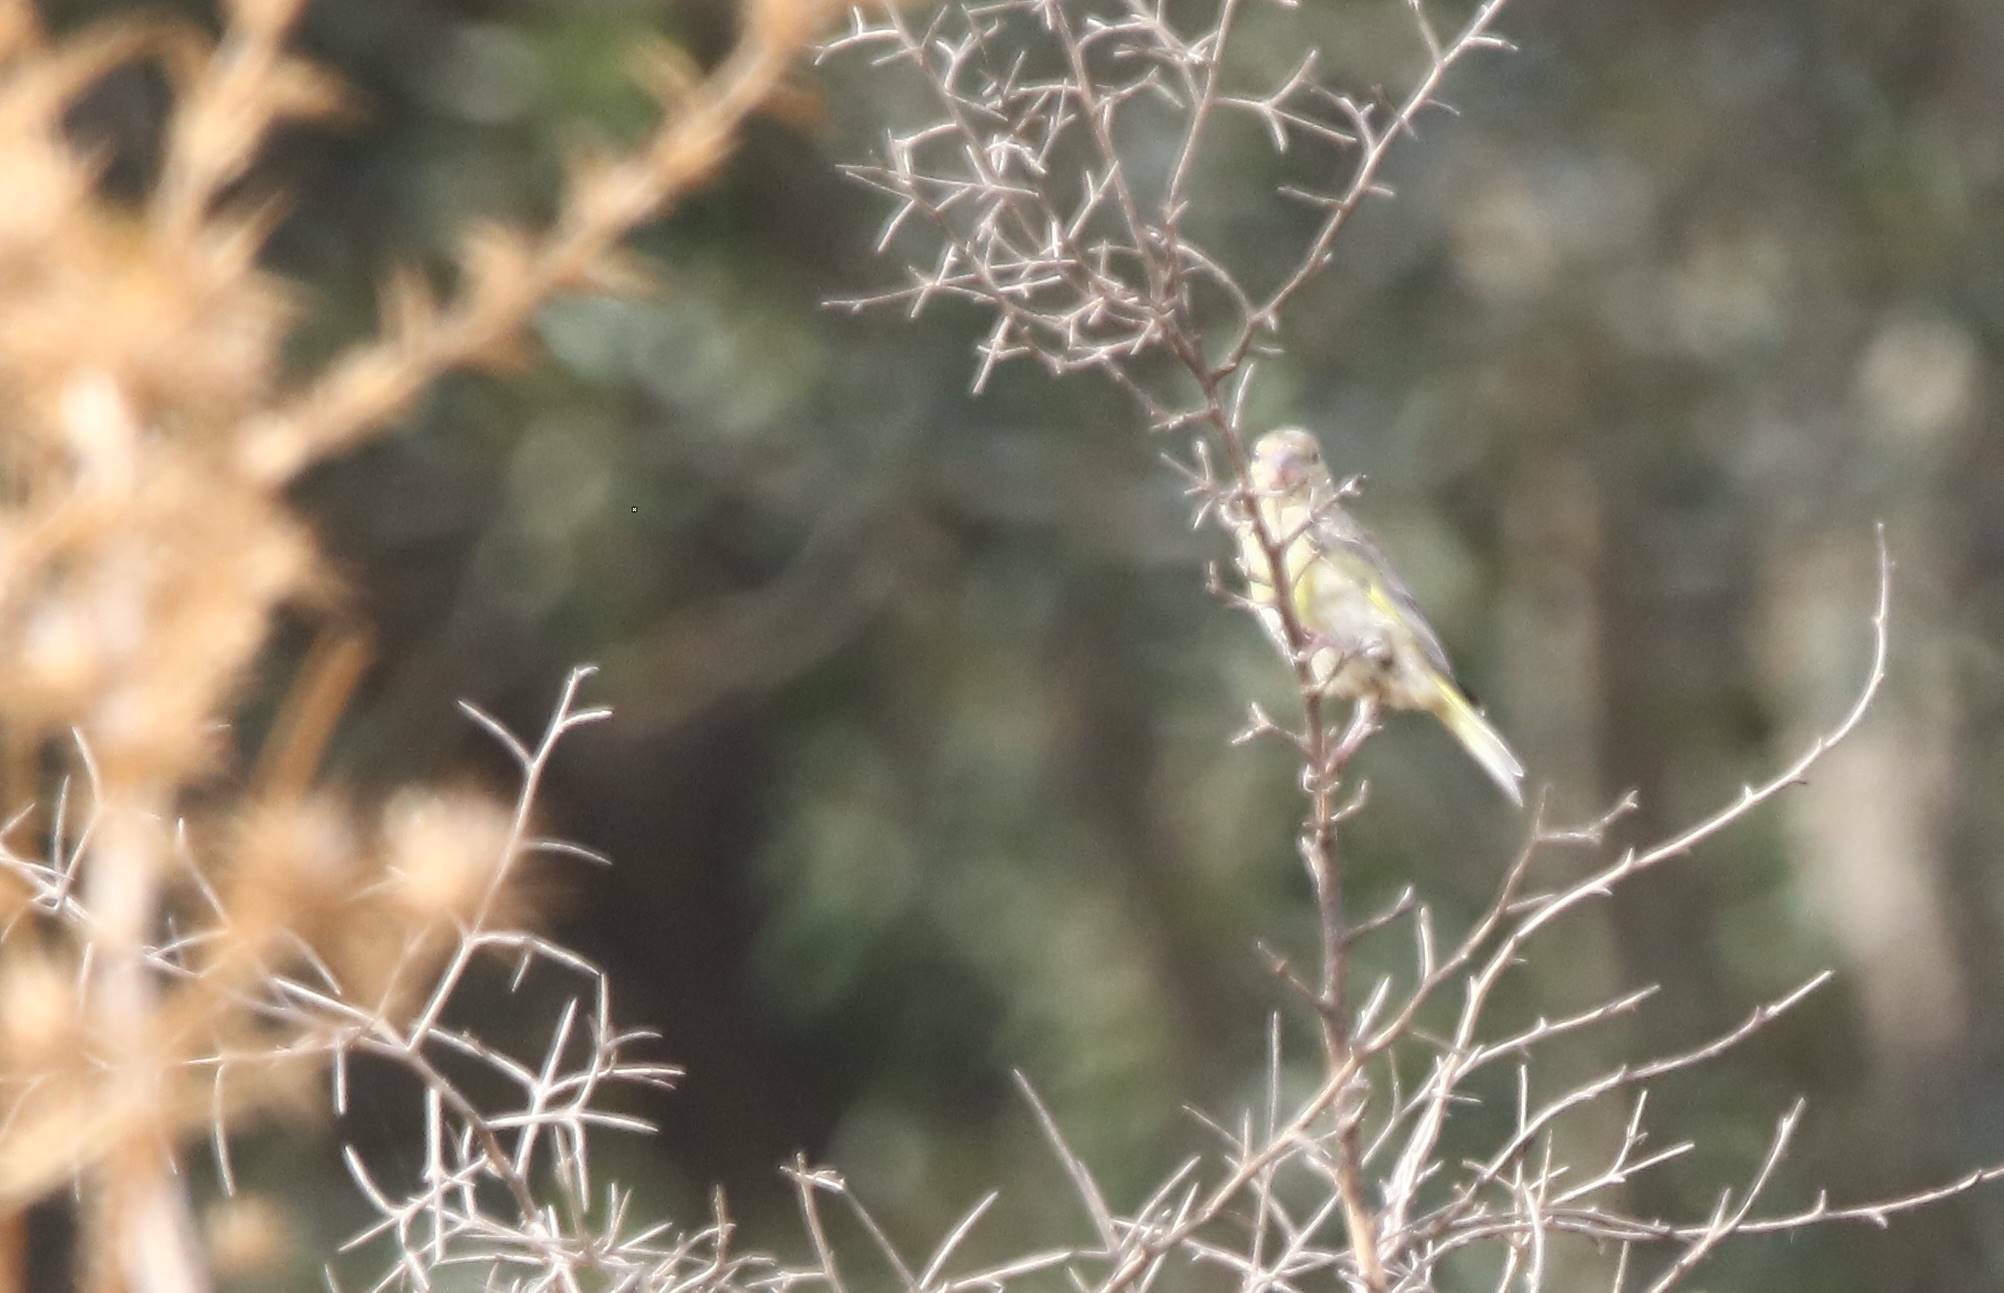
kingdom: Animalia
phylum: Chordata
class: Aves
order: Passeriformes
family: Fringillidae
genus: Serinus
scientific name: Serinus serinus
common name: European serin
